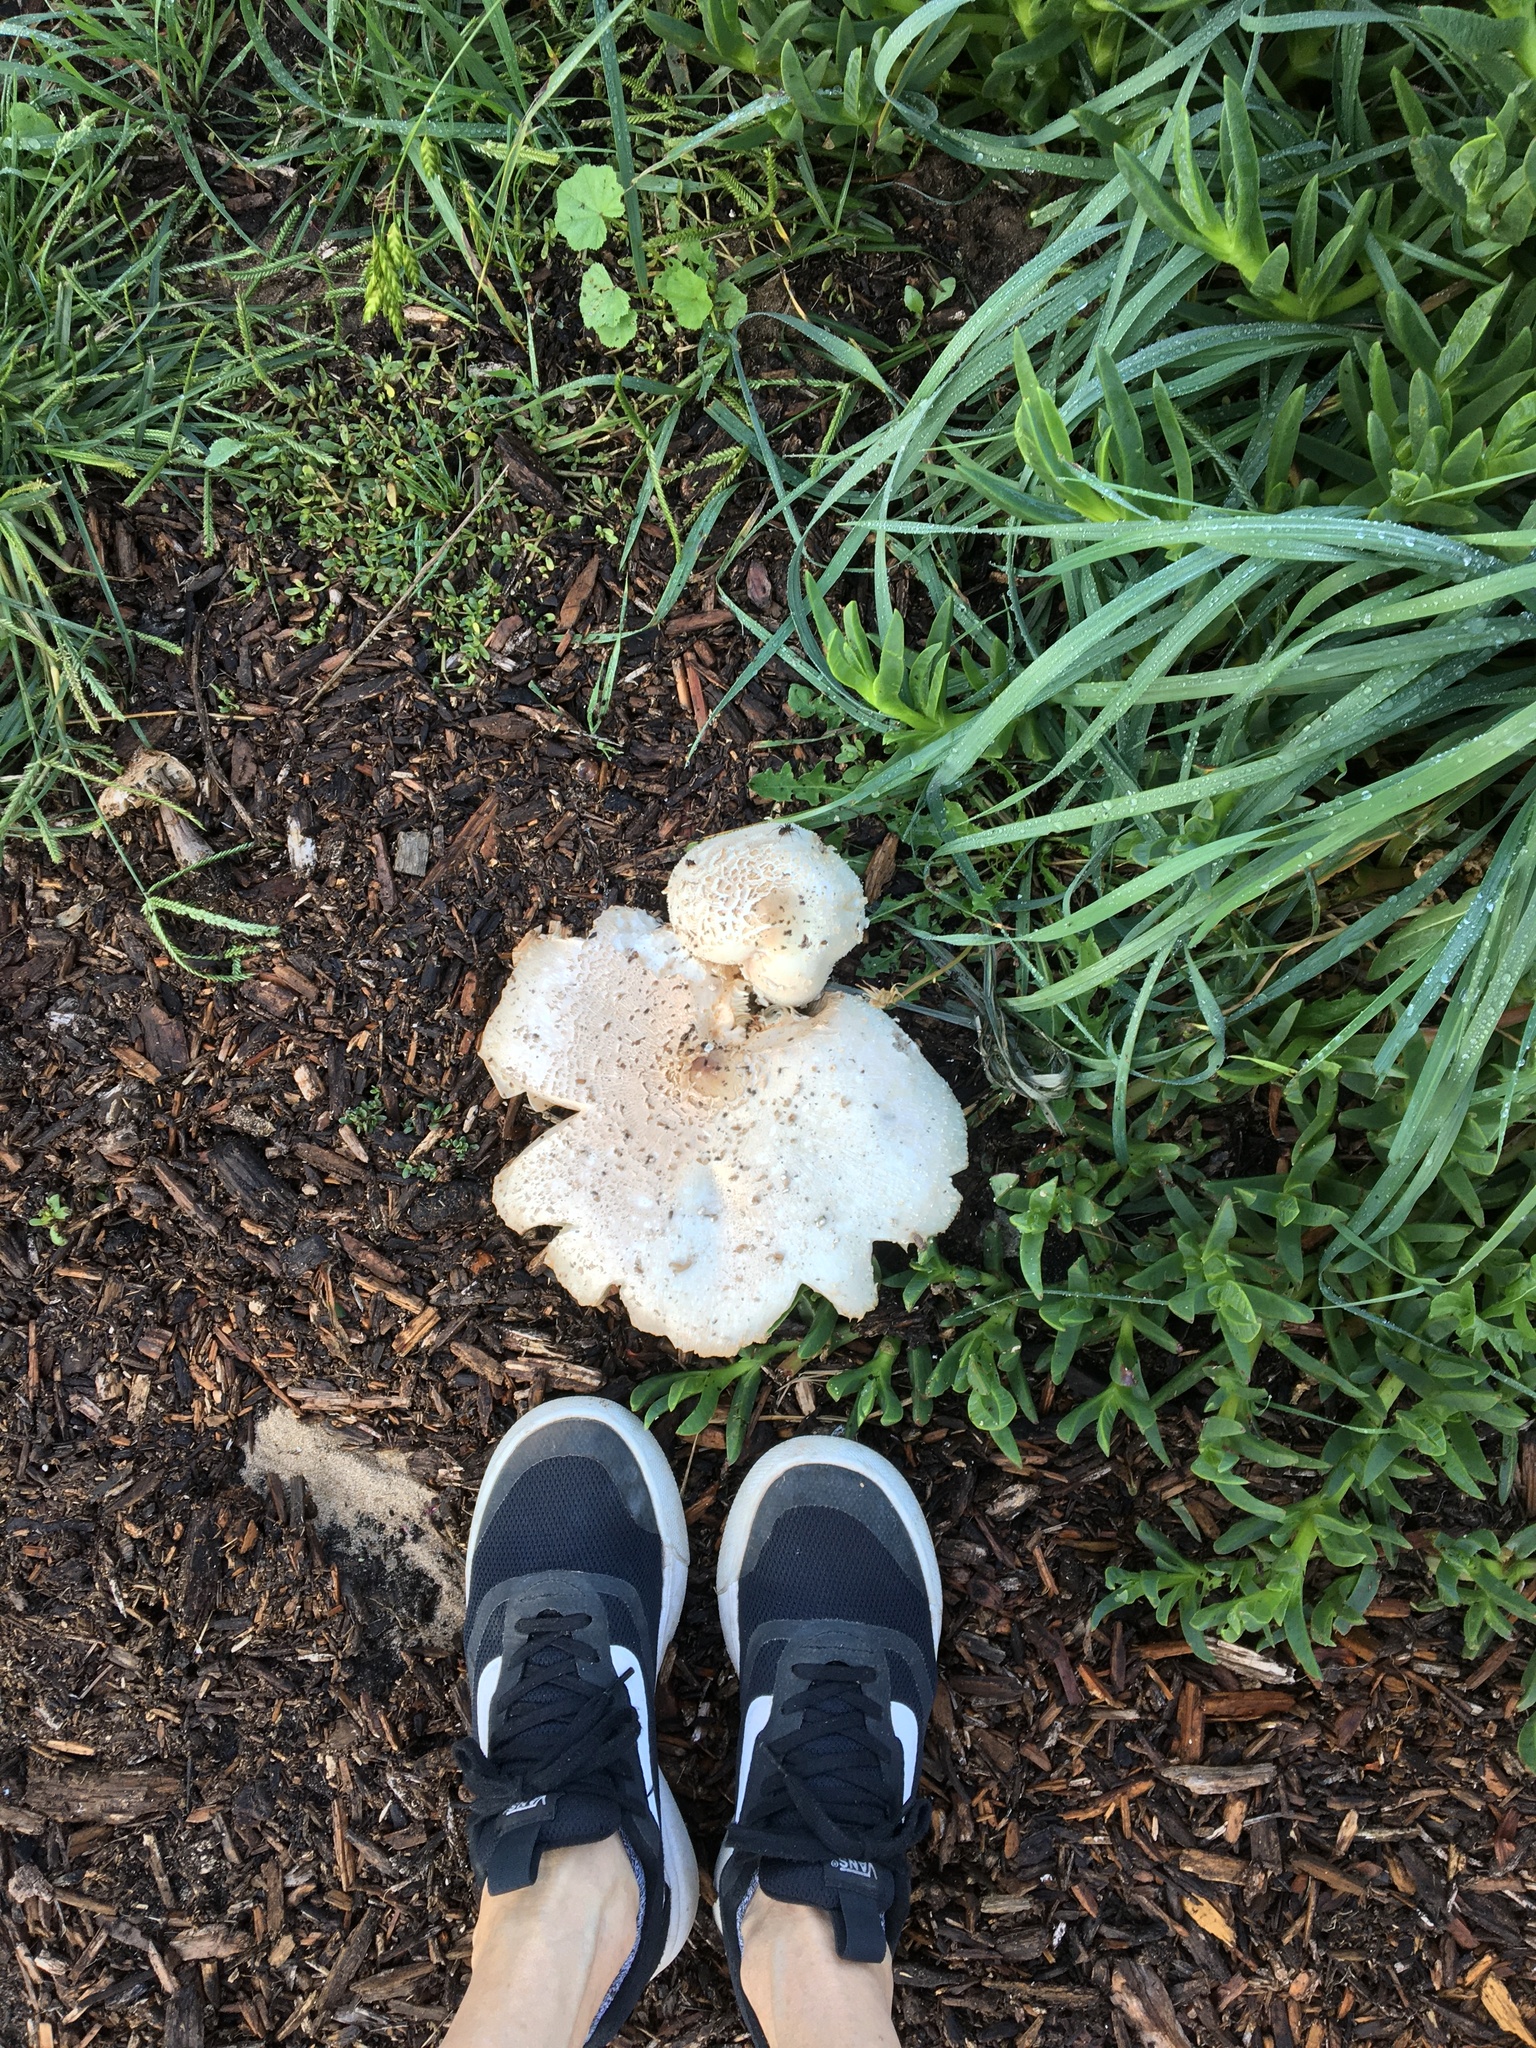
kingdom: Fungi
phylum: Basidiomycota
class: Agaricomycetes
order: Agaricales
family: Agaricaceae
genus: Chlorophyllum
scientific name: Chlorophyllum molybdites
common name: False parasol
